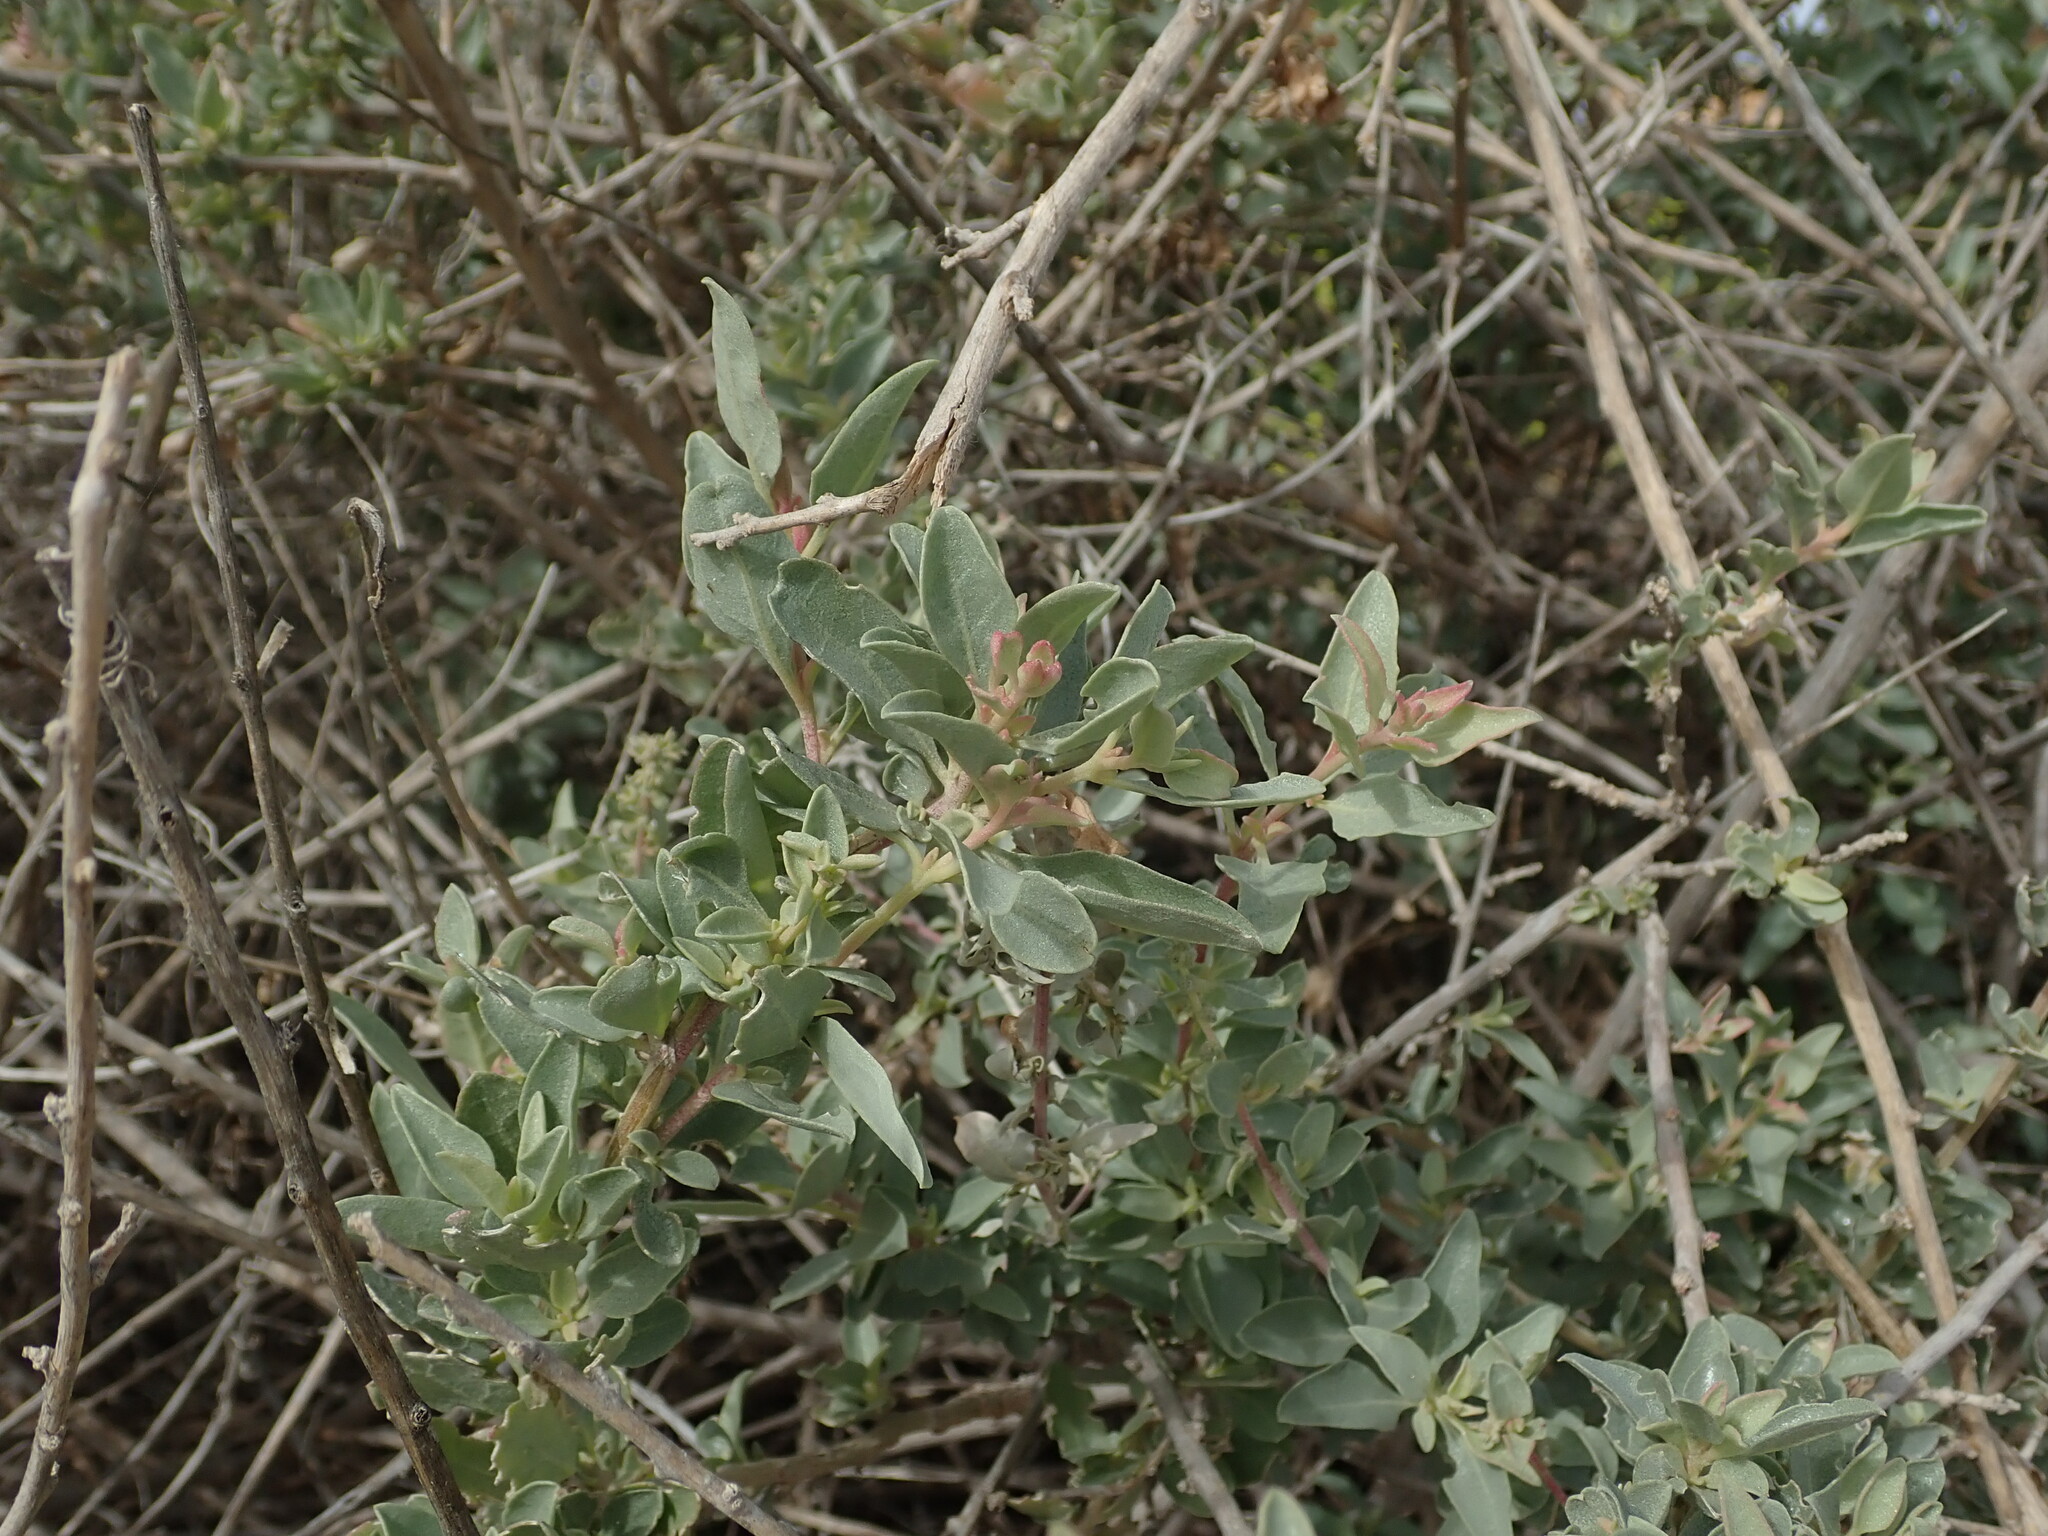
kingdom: Plantae
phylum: Tracheophyta
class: Magnoliopsida
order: Caryophyllales
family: Amaranthaceae
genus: Atriplex
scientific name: Atriplex halimus
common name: Shrubby orache
